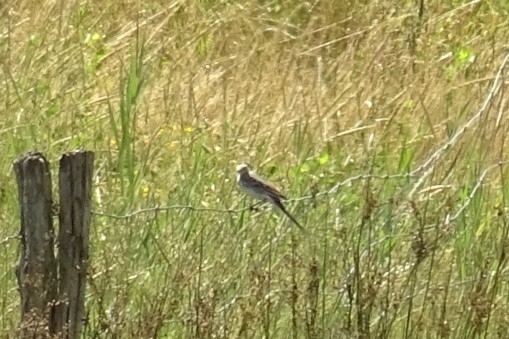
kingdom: Animalia
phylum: Chordata
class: Aves
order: Passeriformes
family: Motacillidae
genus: Motacilla
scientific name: Motacilla alba
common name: White wagtail
